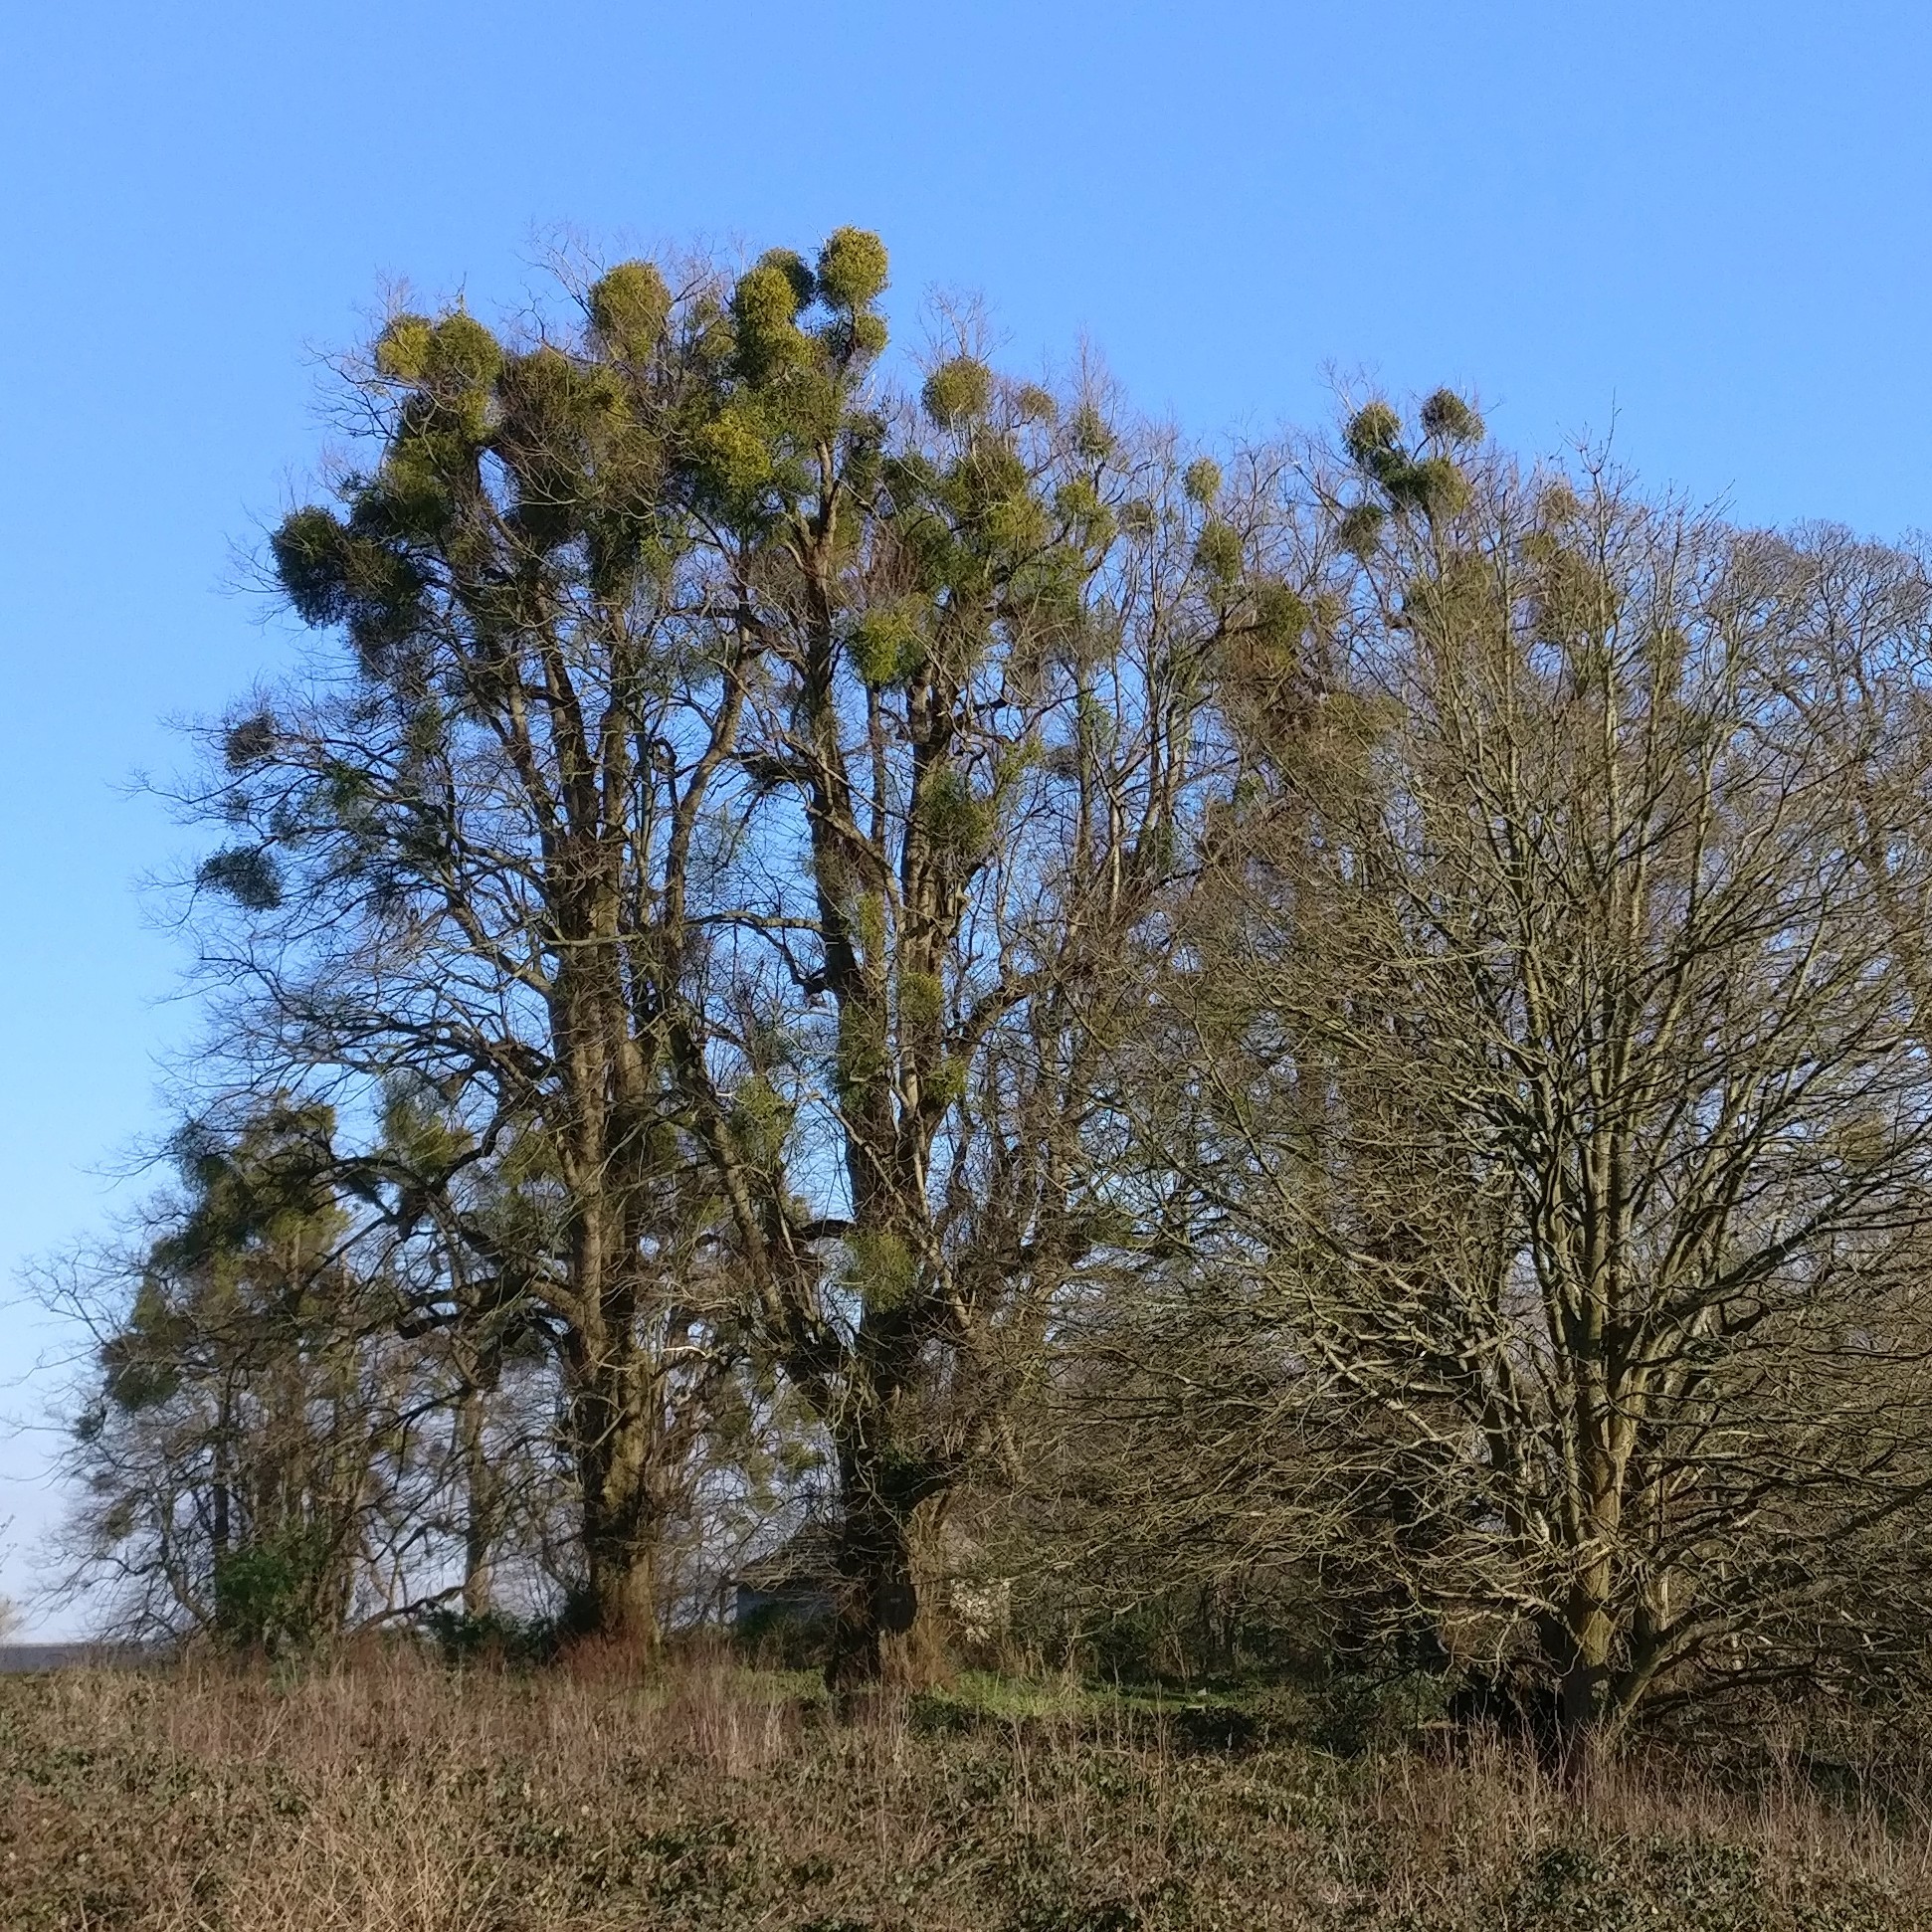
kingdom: Plantae
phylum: Tracheophyta
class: Magnoliopsida
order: Santalales
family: Viscaceae
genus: Viscum
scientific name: Viscum album
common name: Mistletoe
